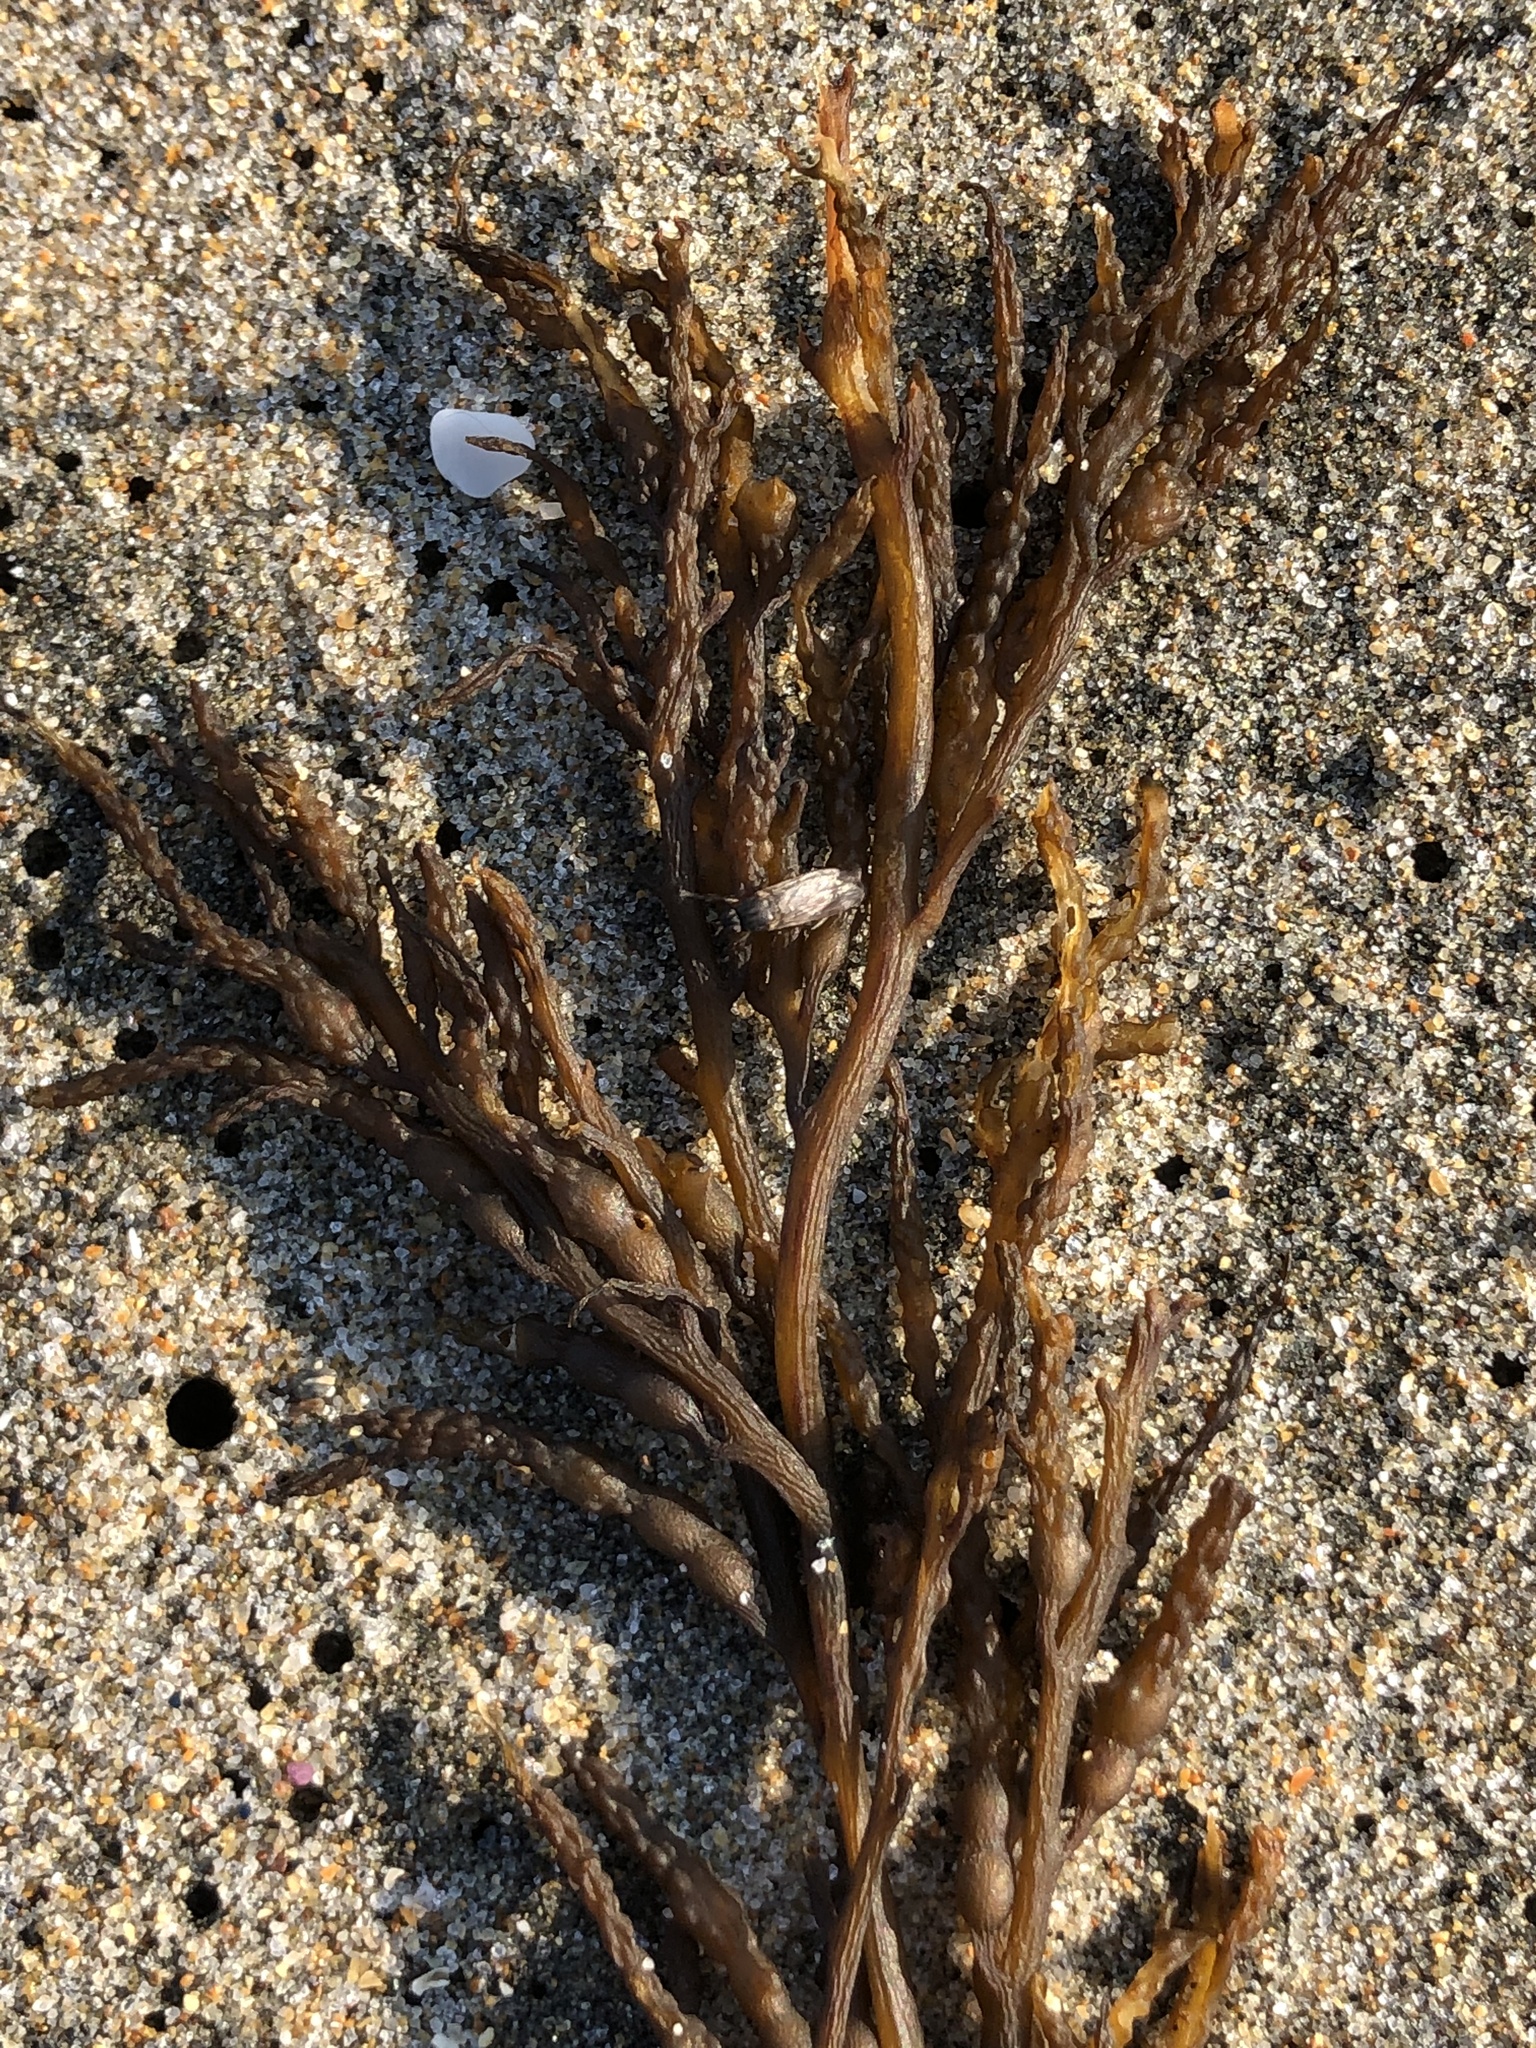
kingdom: Chromista
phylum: Ochrophyta
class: Phaeophyceae
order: Fucales
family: Sargassaceae
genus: Stephanocystis
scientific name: Stephanocystis
